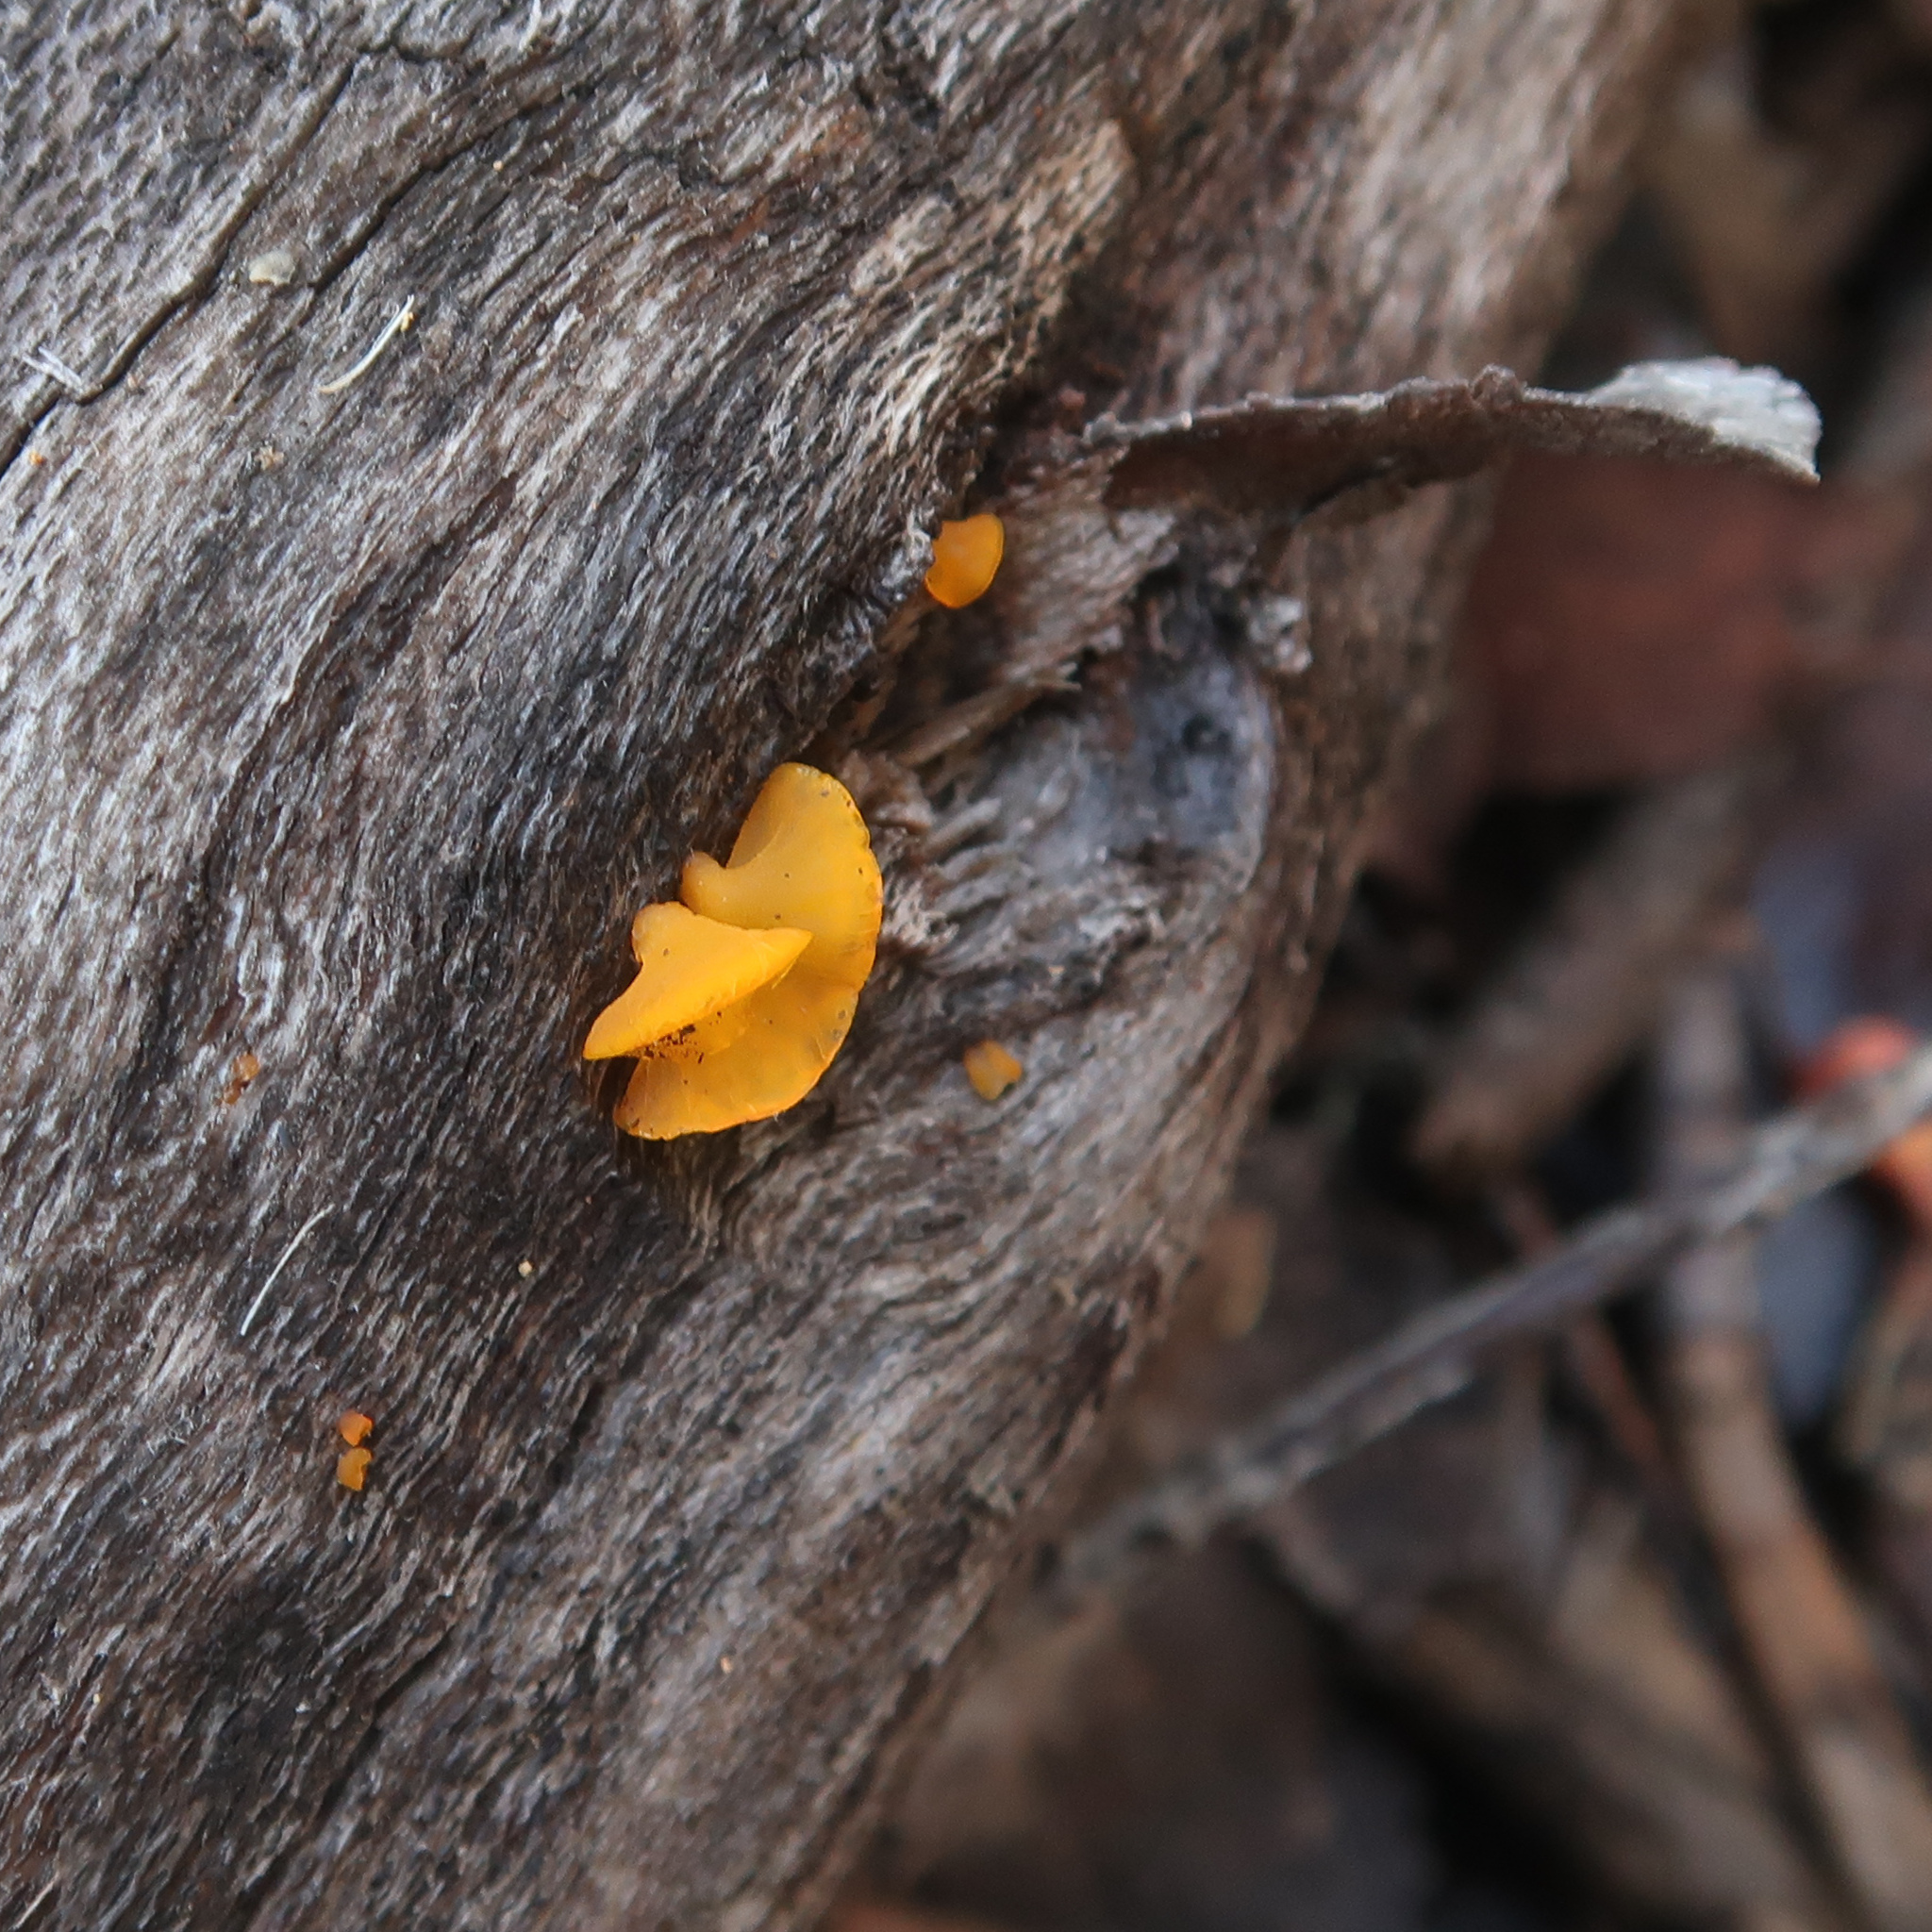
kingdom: Fungi
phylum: Basidiomycota
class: Dacrymycetes
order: Dacrymycetales
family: Dacrymycetaceae
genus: Heterotextus
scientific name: Heterotextus peziziformis
